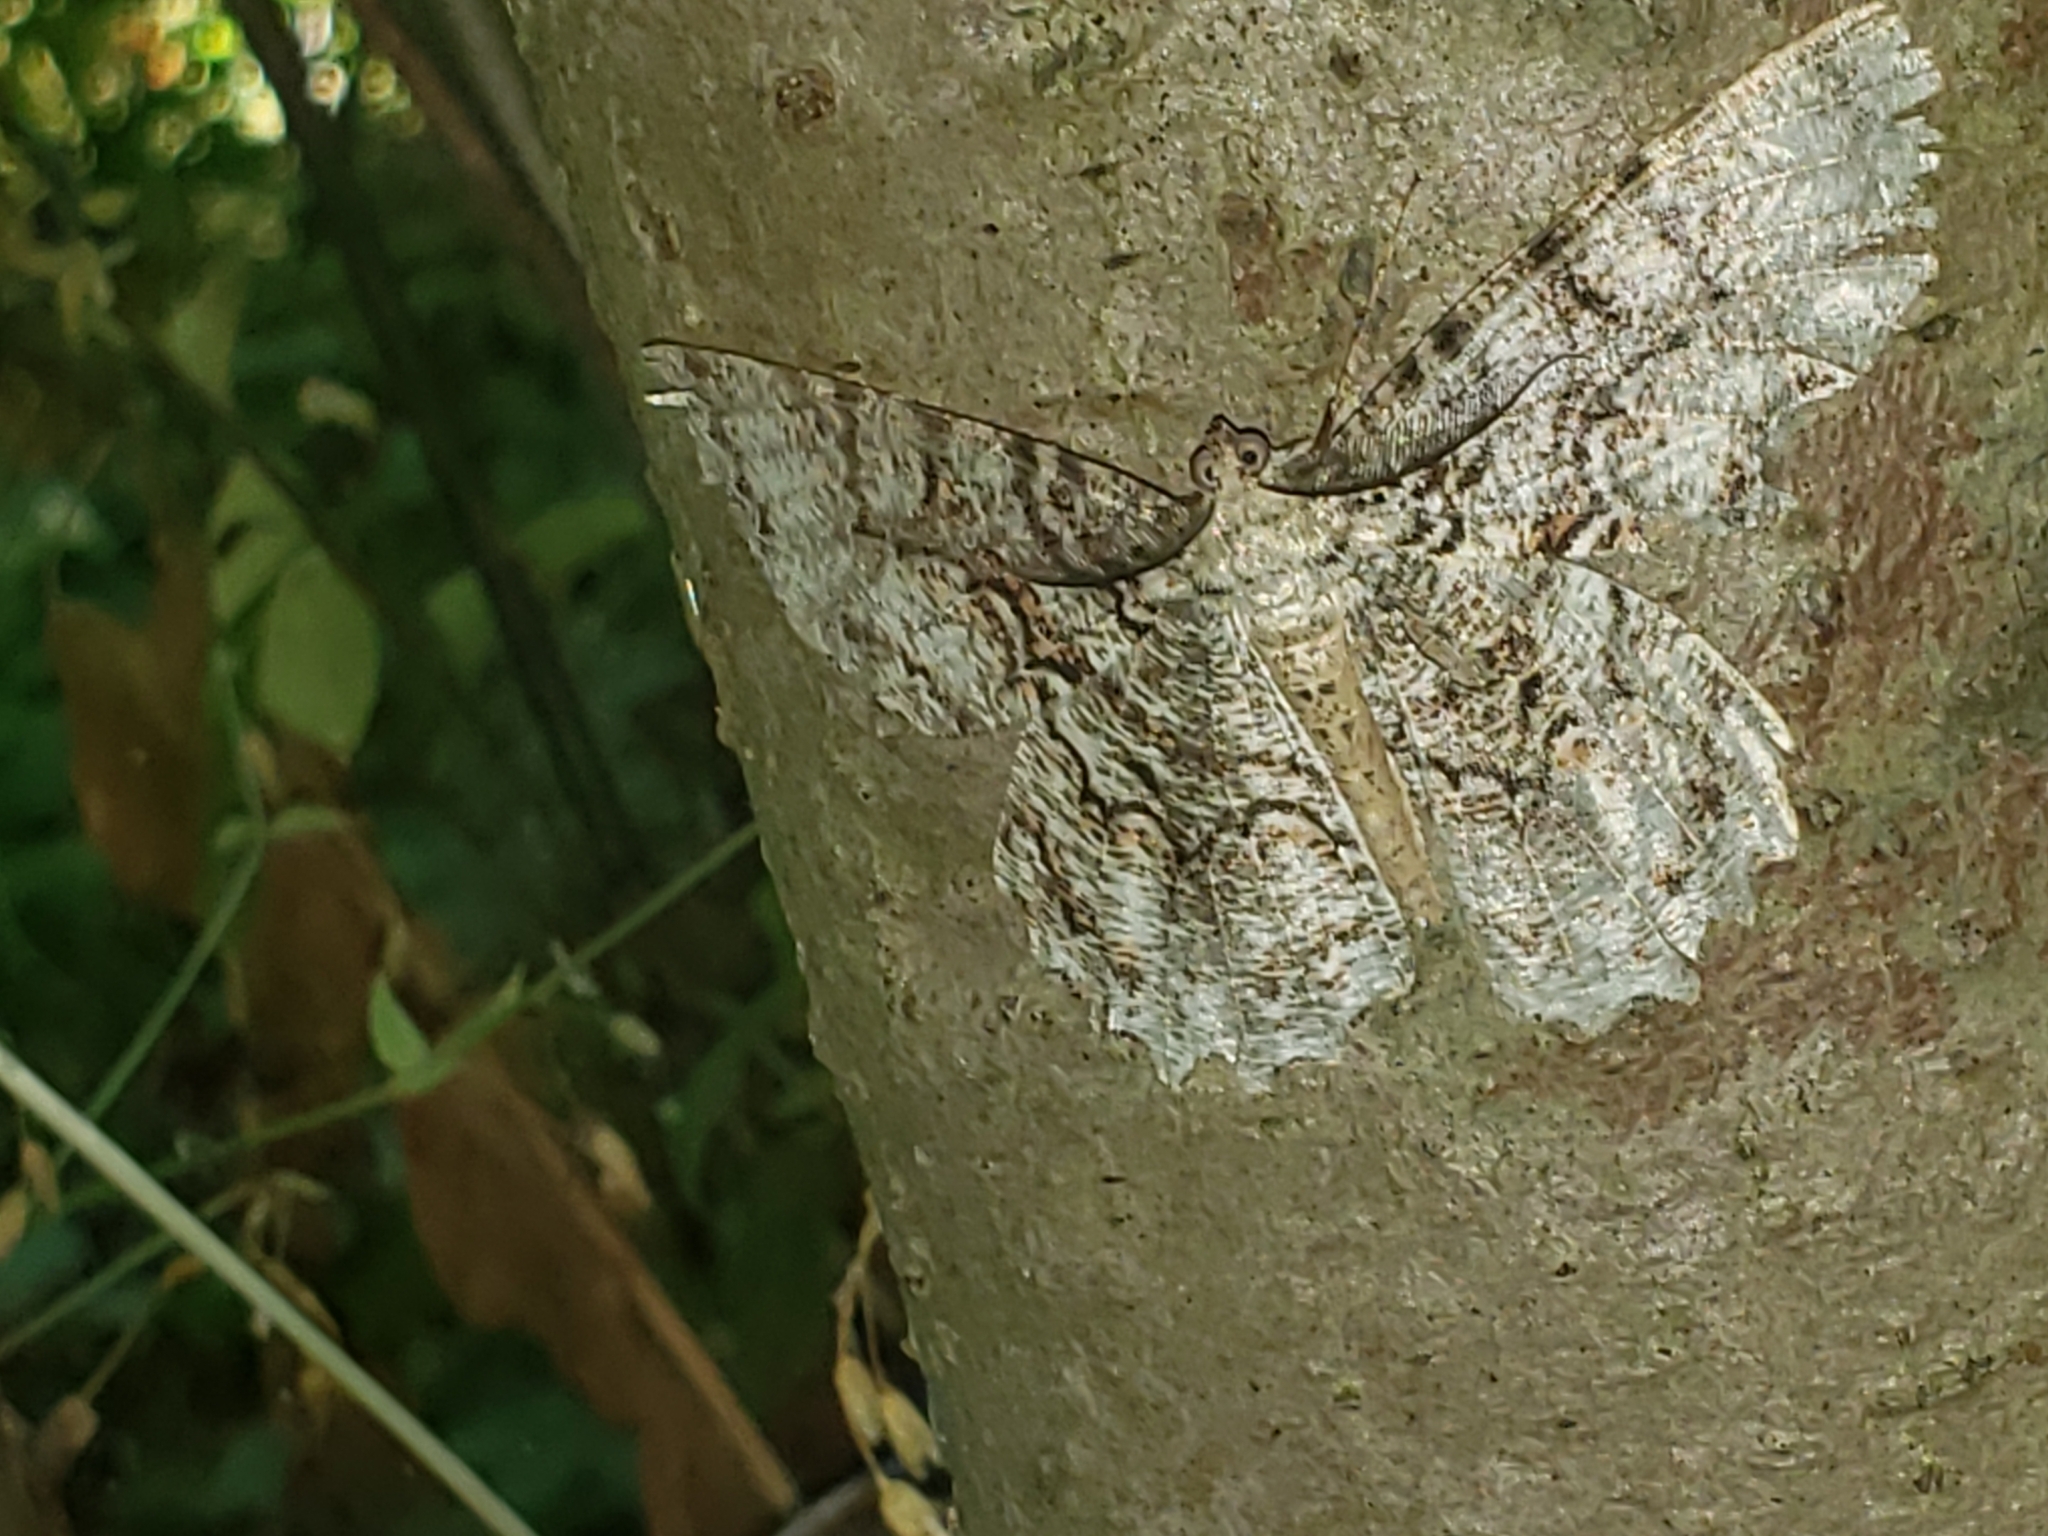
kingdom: Animalia
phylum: Arthropoda
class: Insecta
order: Lepidoptera
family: Geometridae
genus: Epimecis
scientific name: Epimecis hortaria
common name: Tulip-tree beauty
